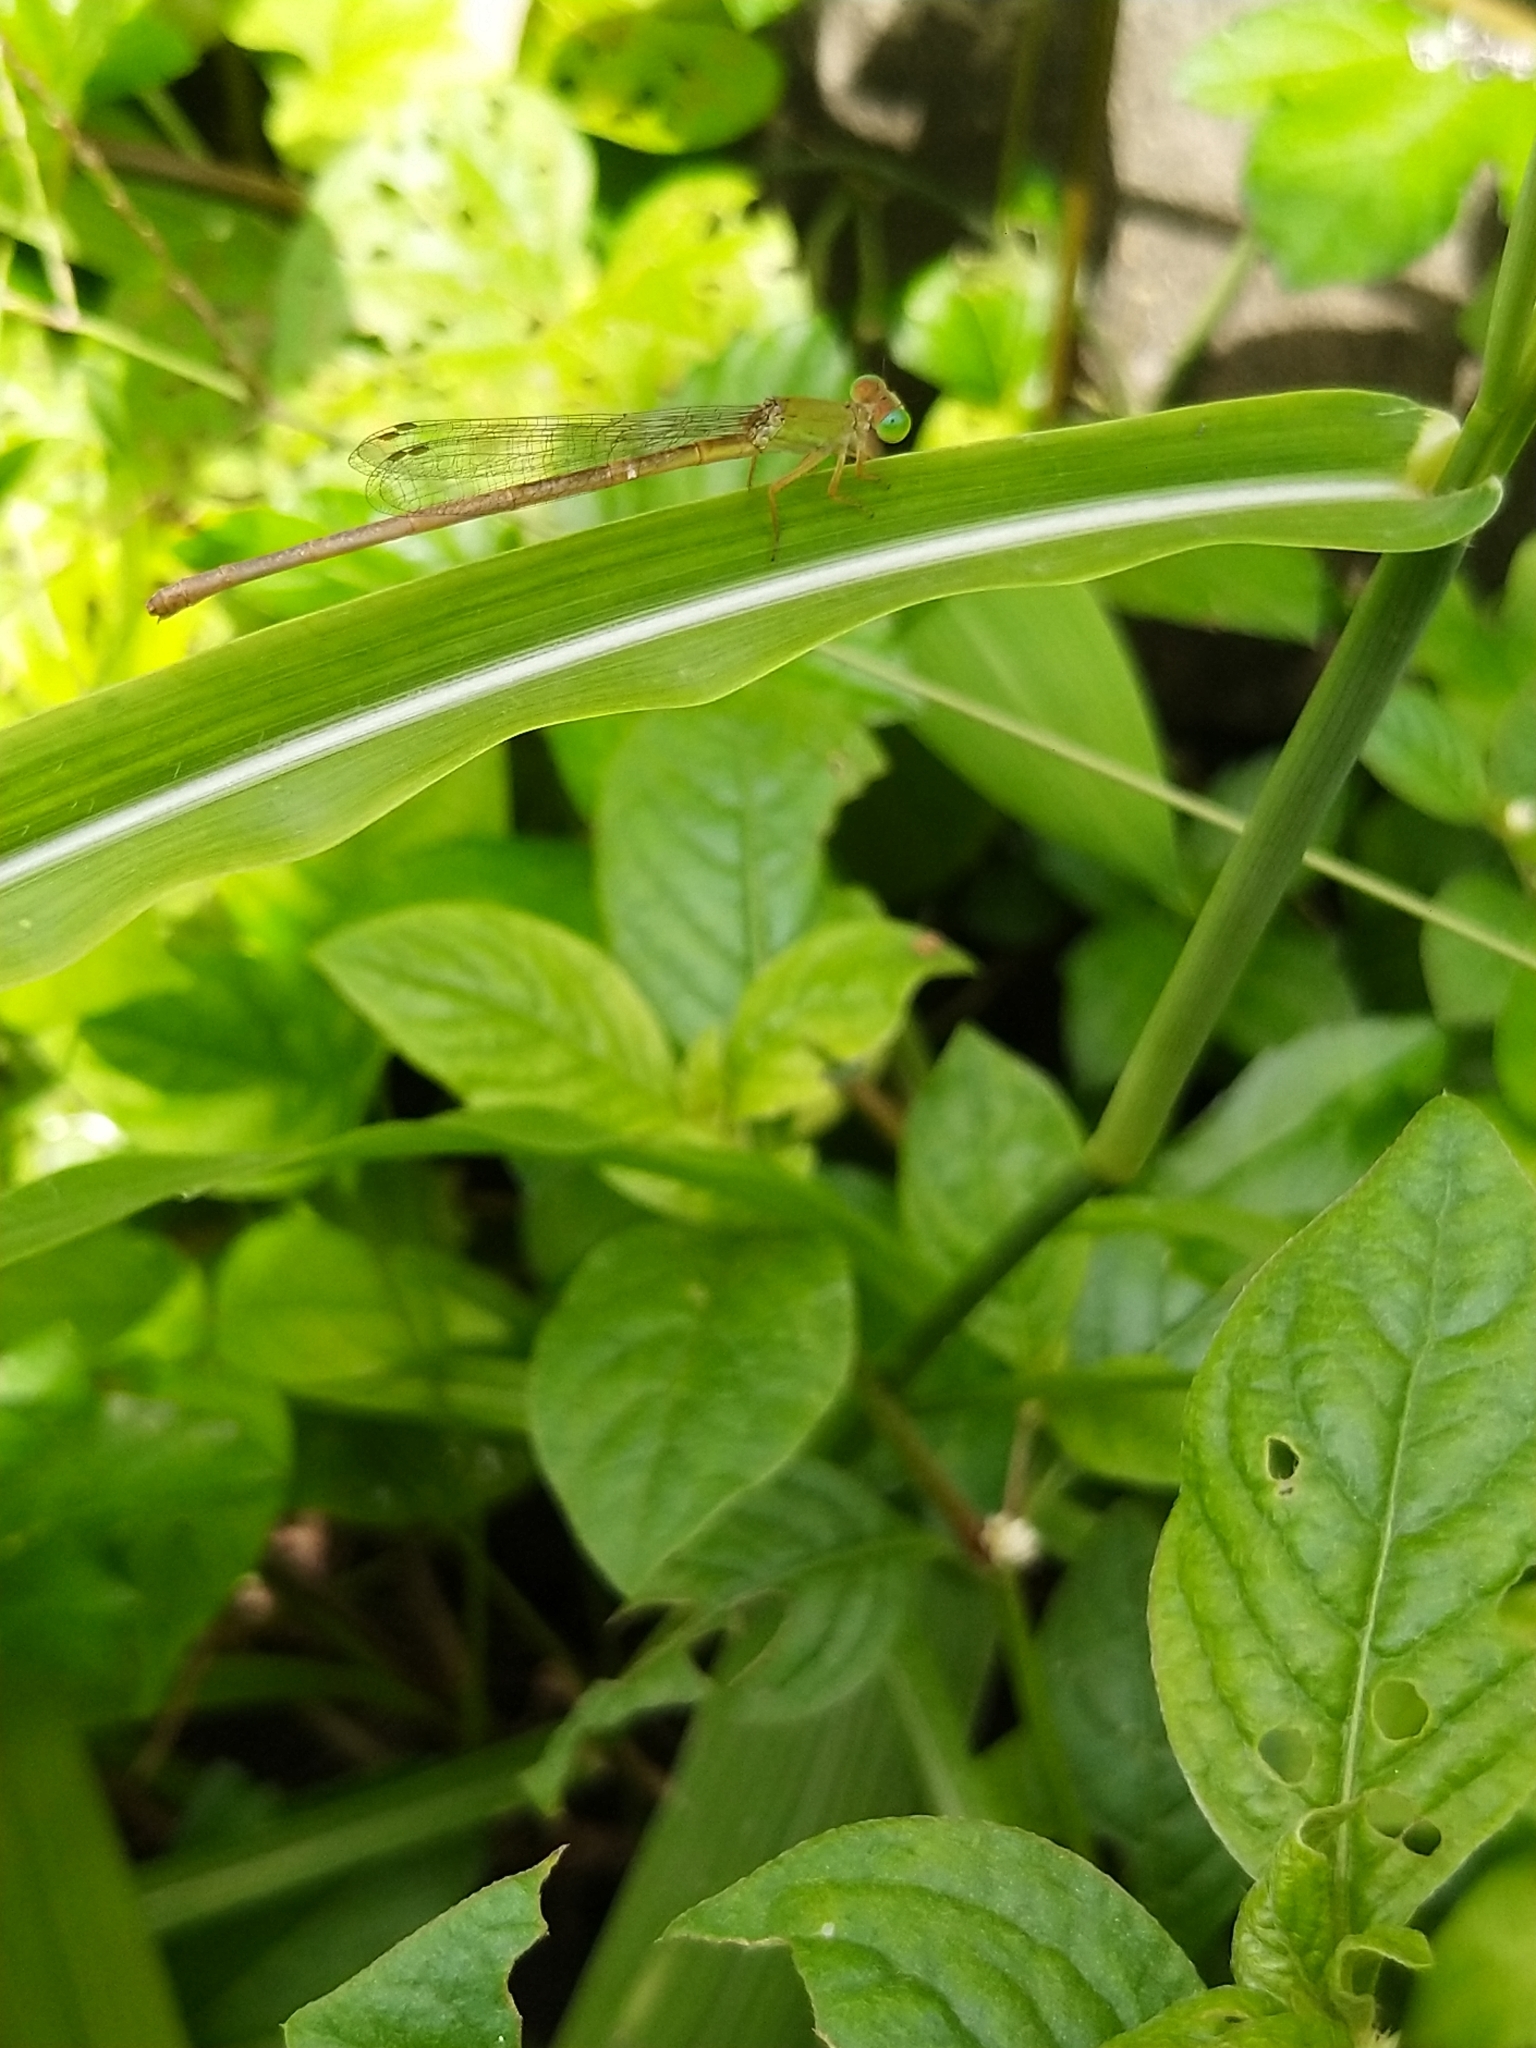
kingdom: Animalia
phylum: Arthropoda
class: Insecta
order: Odonata
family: Coenagrionidae
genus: Ceriagrion
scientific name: Ceriagrion coromandelianum
